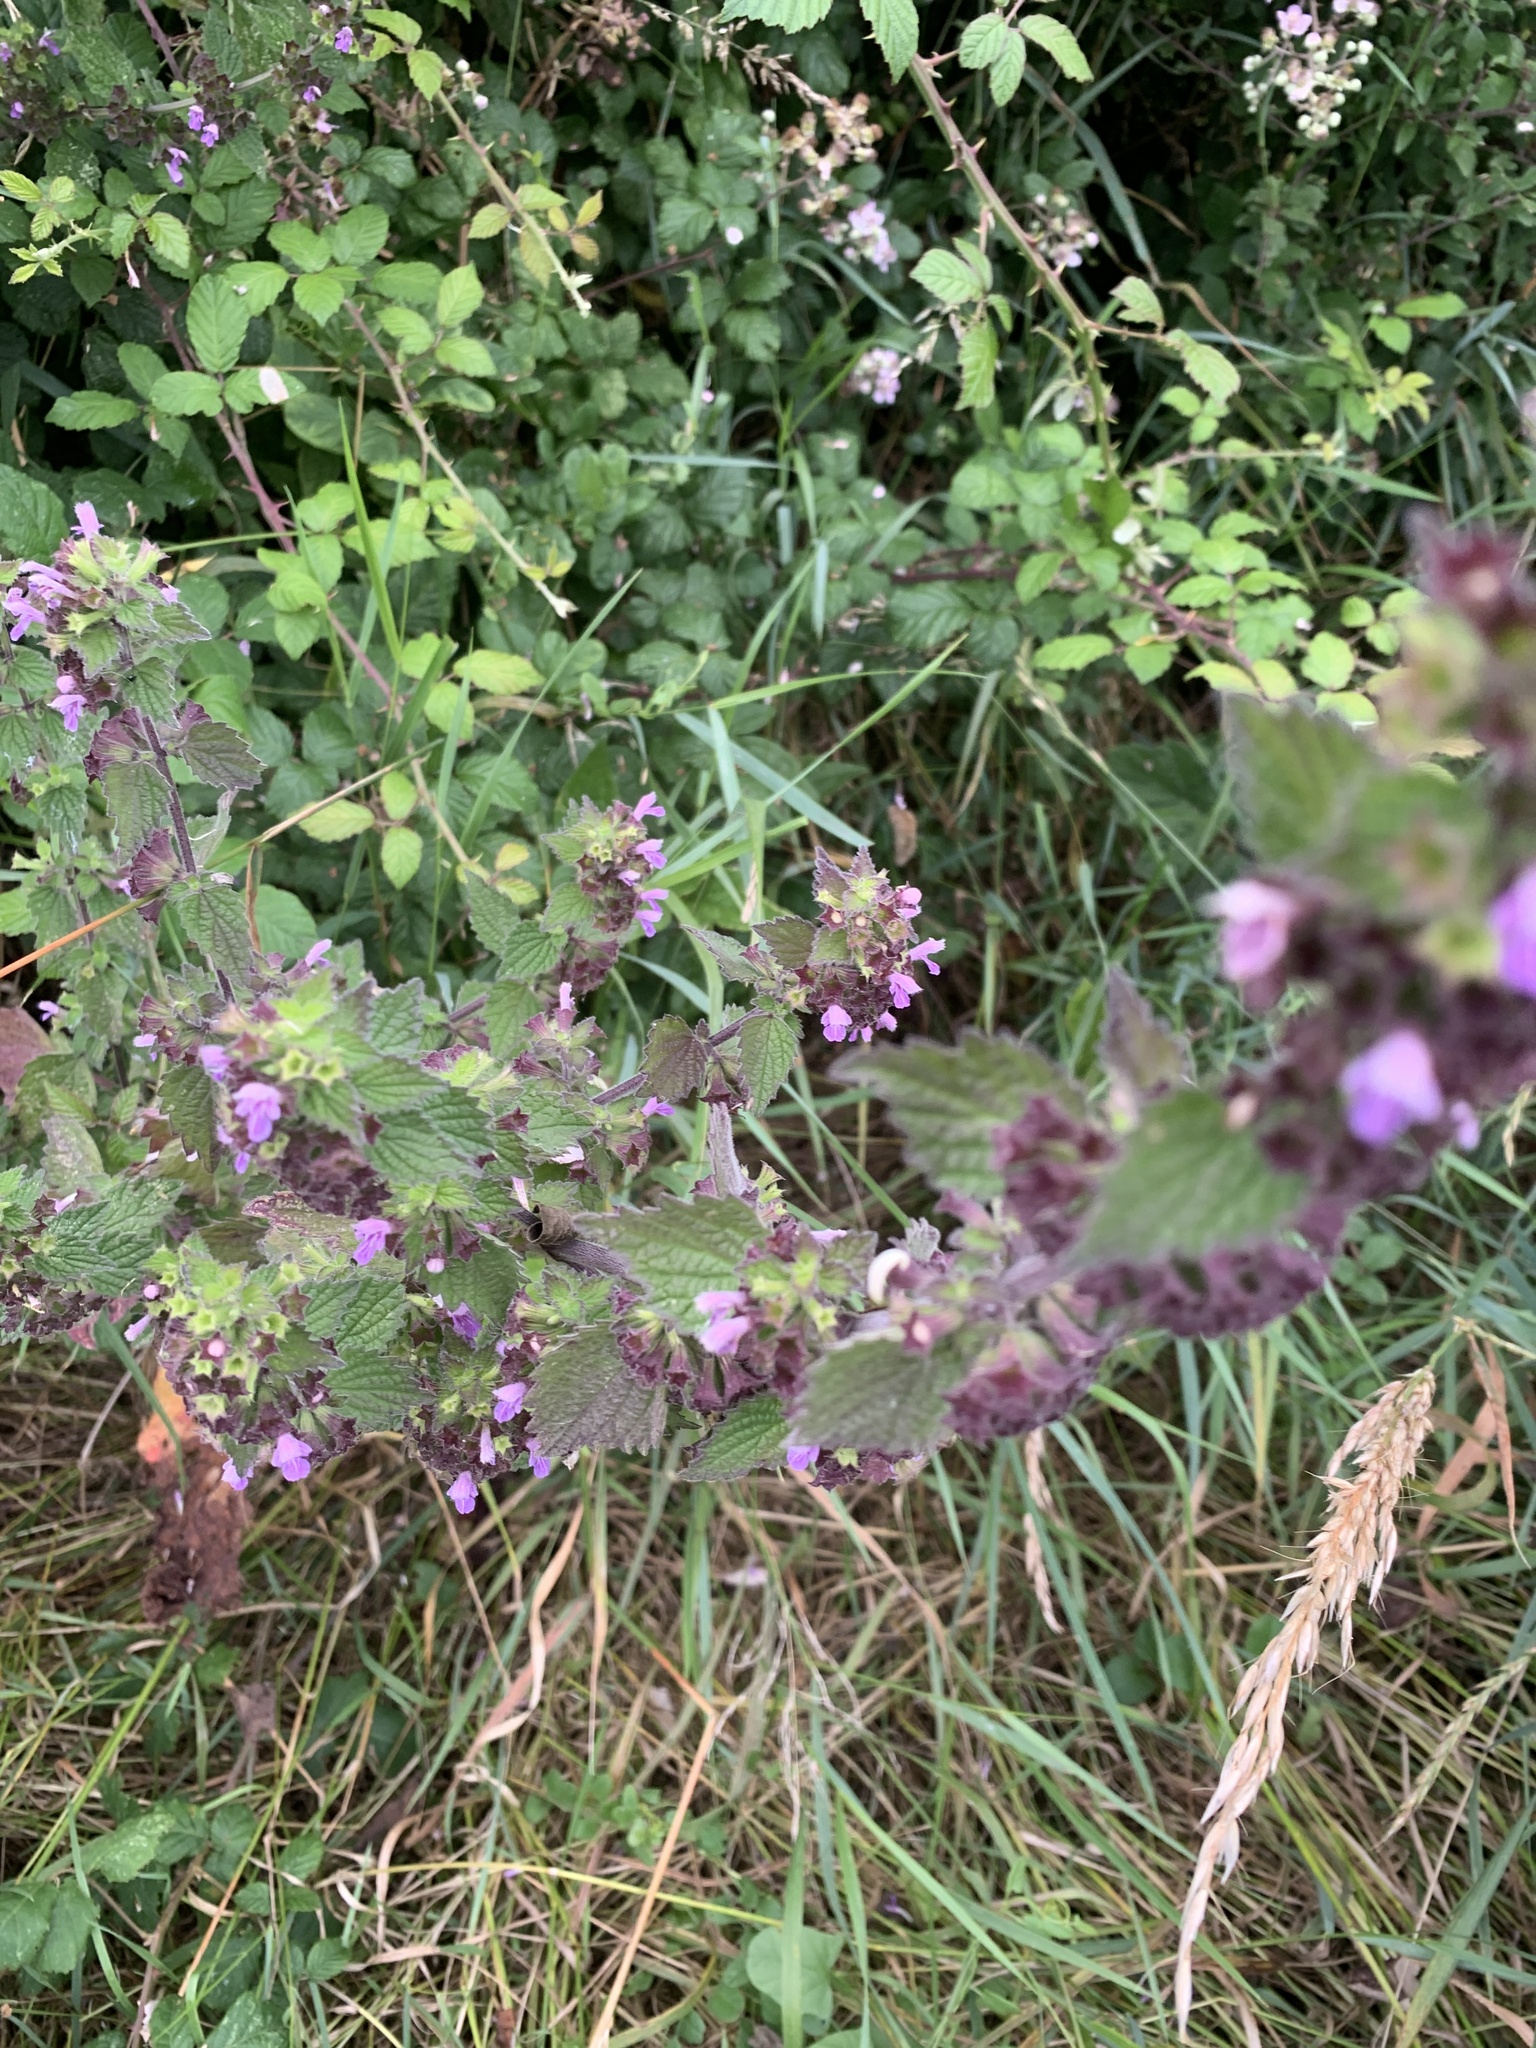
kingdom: Plantae
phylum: Tracheophyta
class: Magnoliopsida
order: Lamiales
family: Lamiaceae
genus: Ballota
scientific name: Ballota nigra
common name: Black horehound
